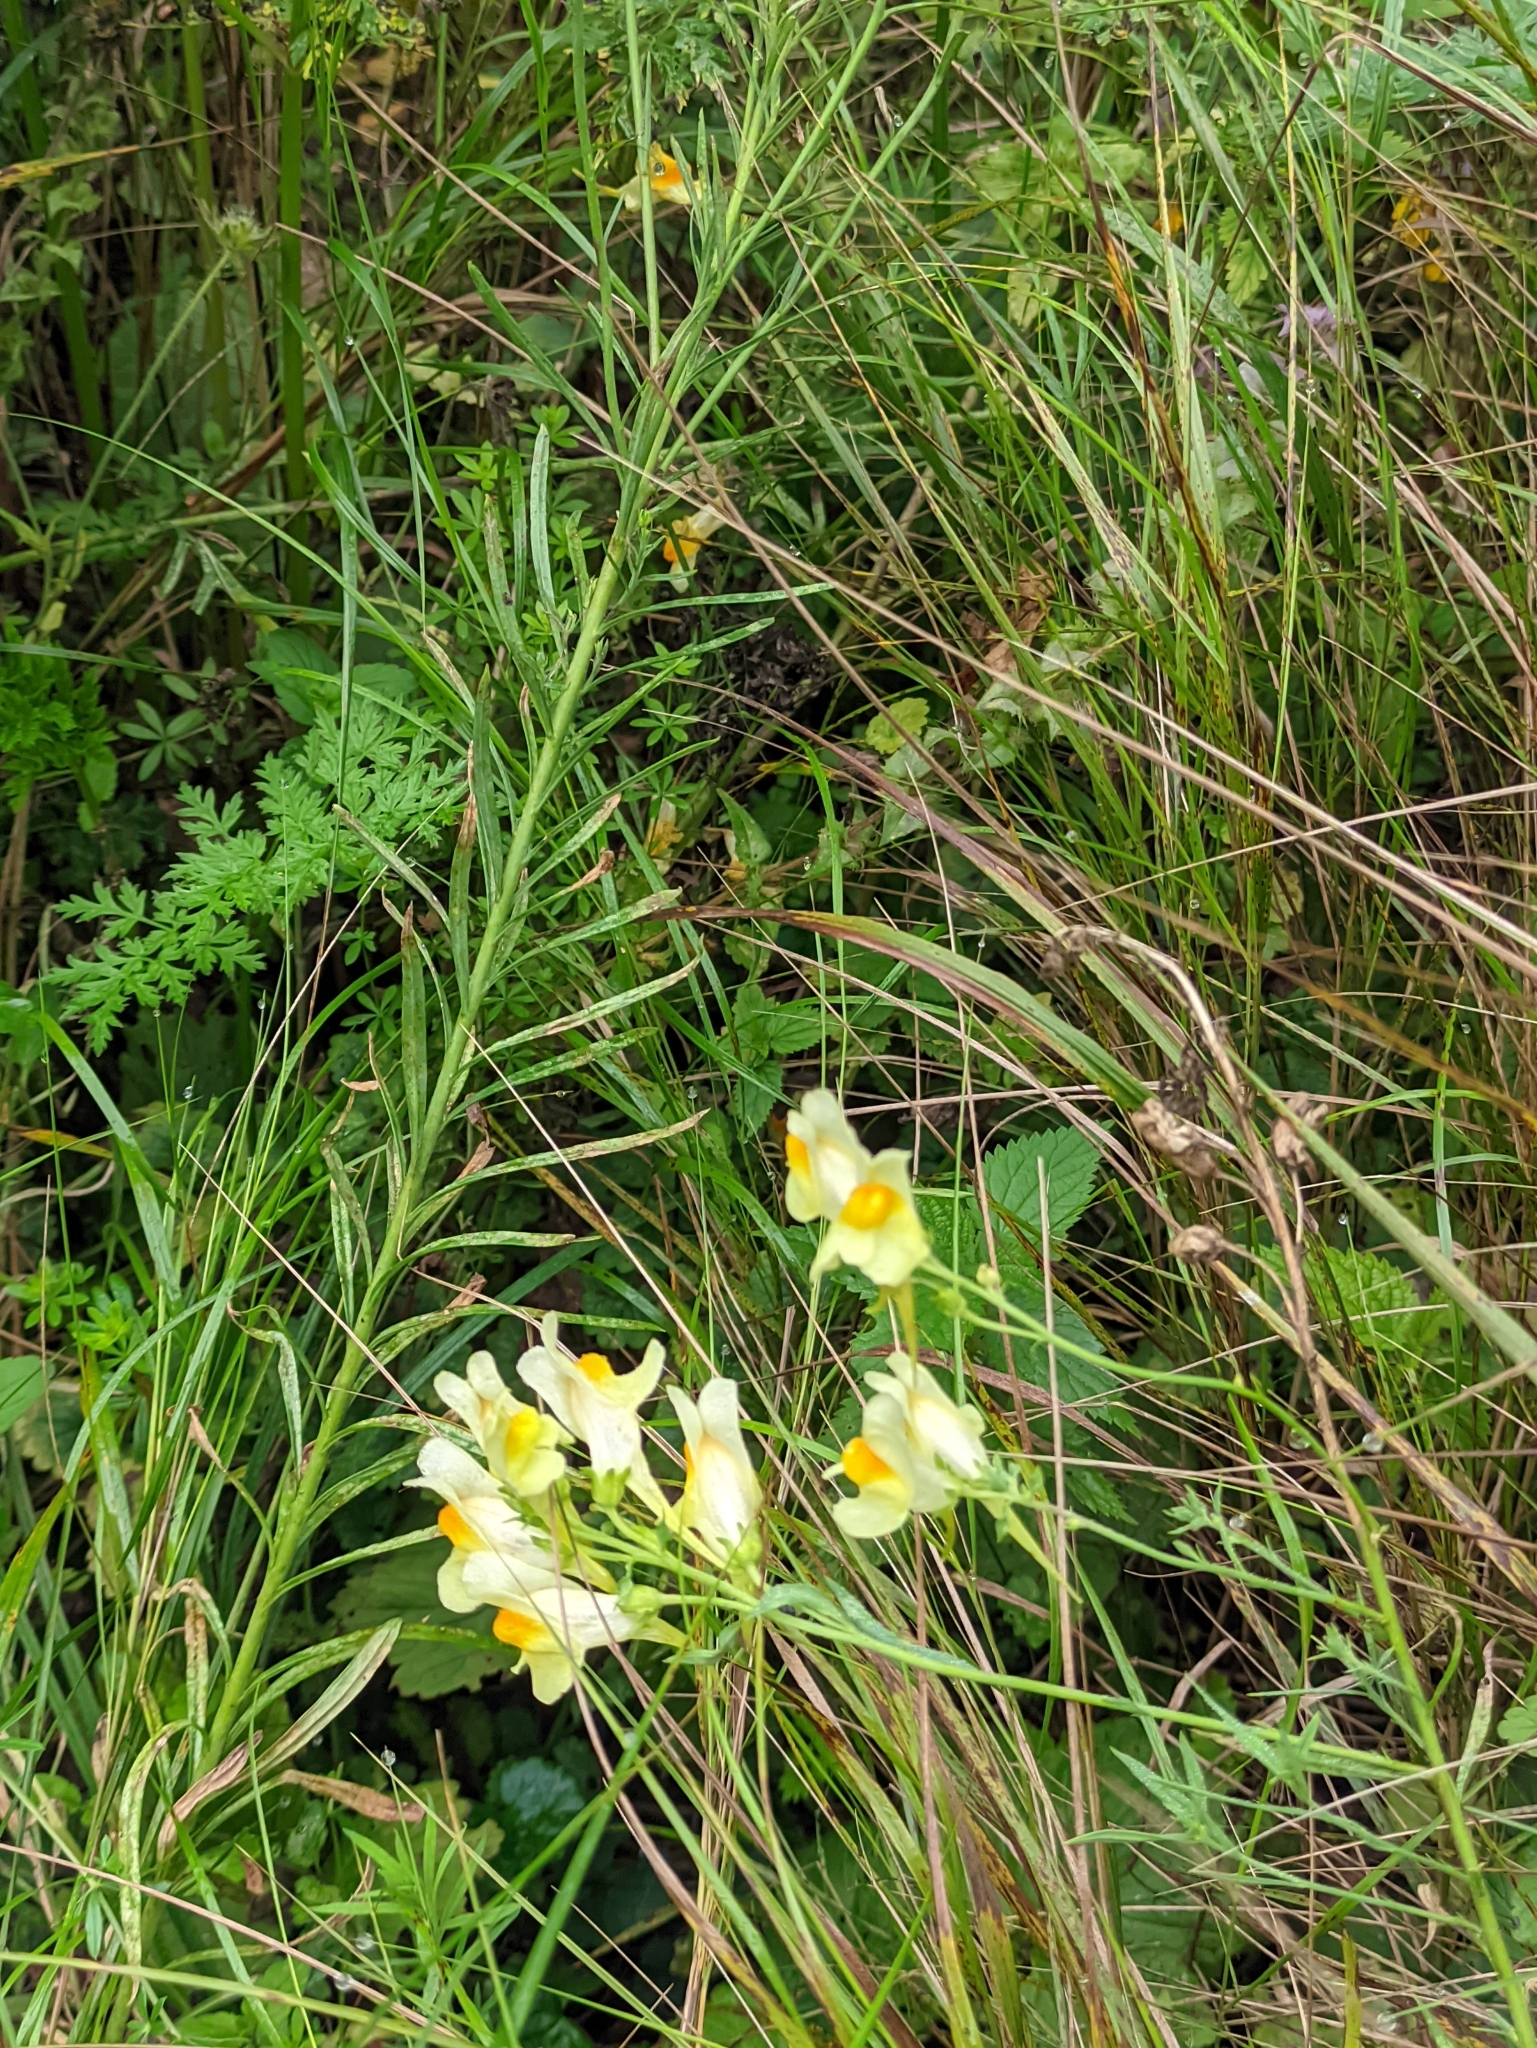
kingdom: Plantae
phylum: Tracheophyta
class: Magnoliopsida
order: Lamiales
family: Plantaginaceae
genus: Linaria
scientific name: Linaria vulgaris
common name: Butter and eggs
